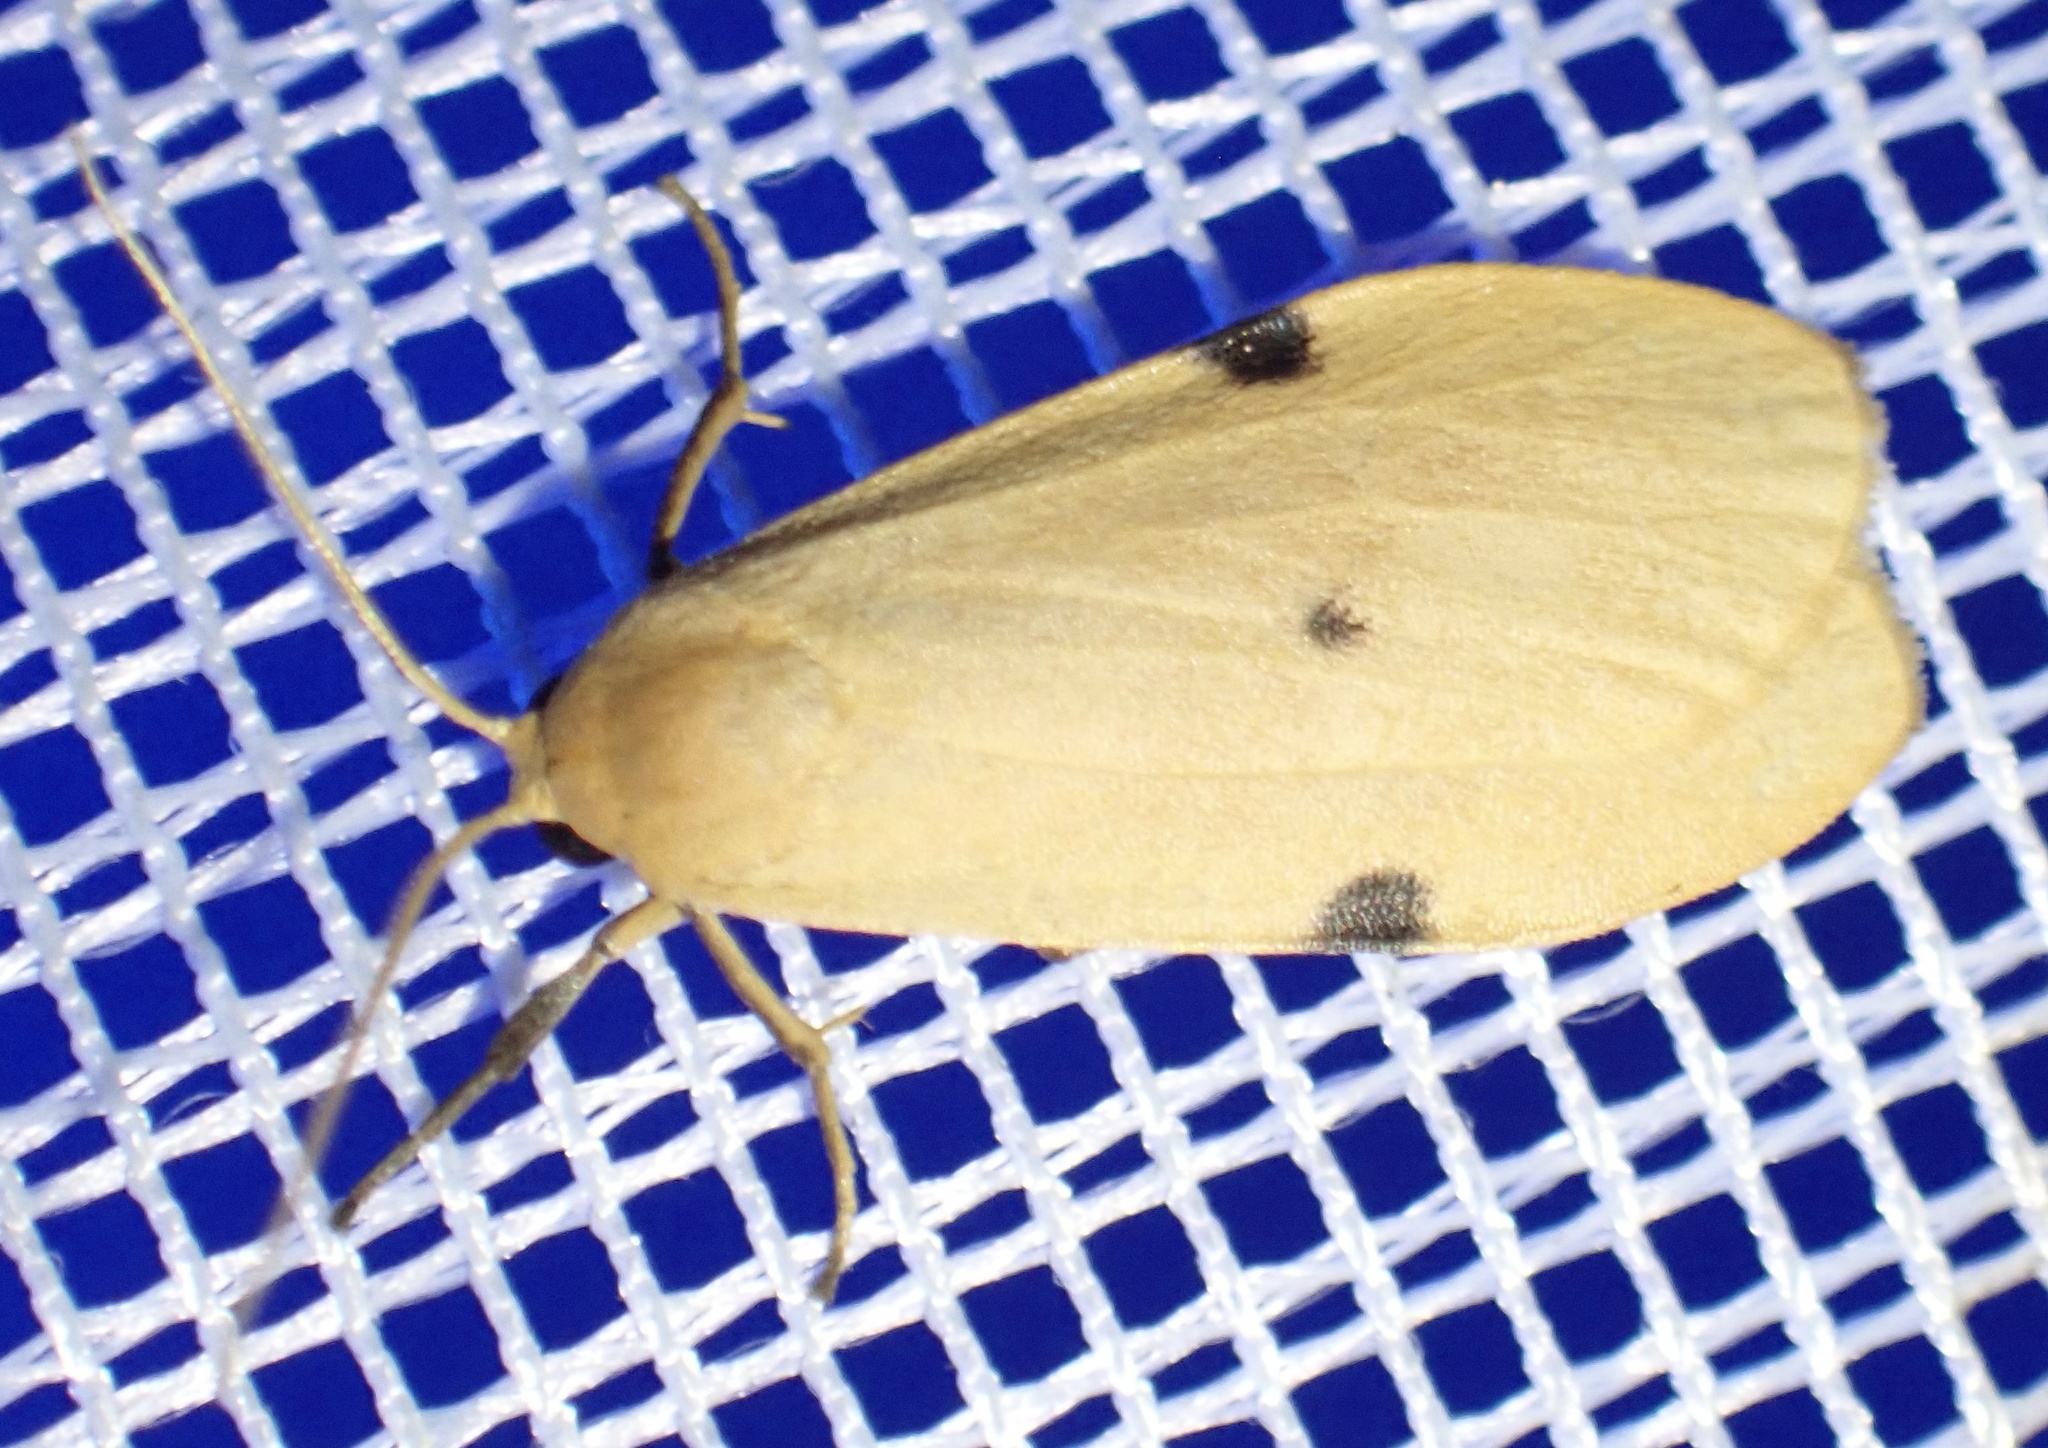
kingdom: Animalia
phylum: Arthropoda
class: Insecta
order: Lepidoptera
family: Erebidae
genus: Archithosia
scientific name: Archithosia costimacula
